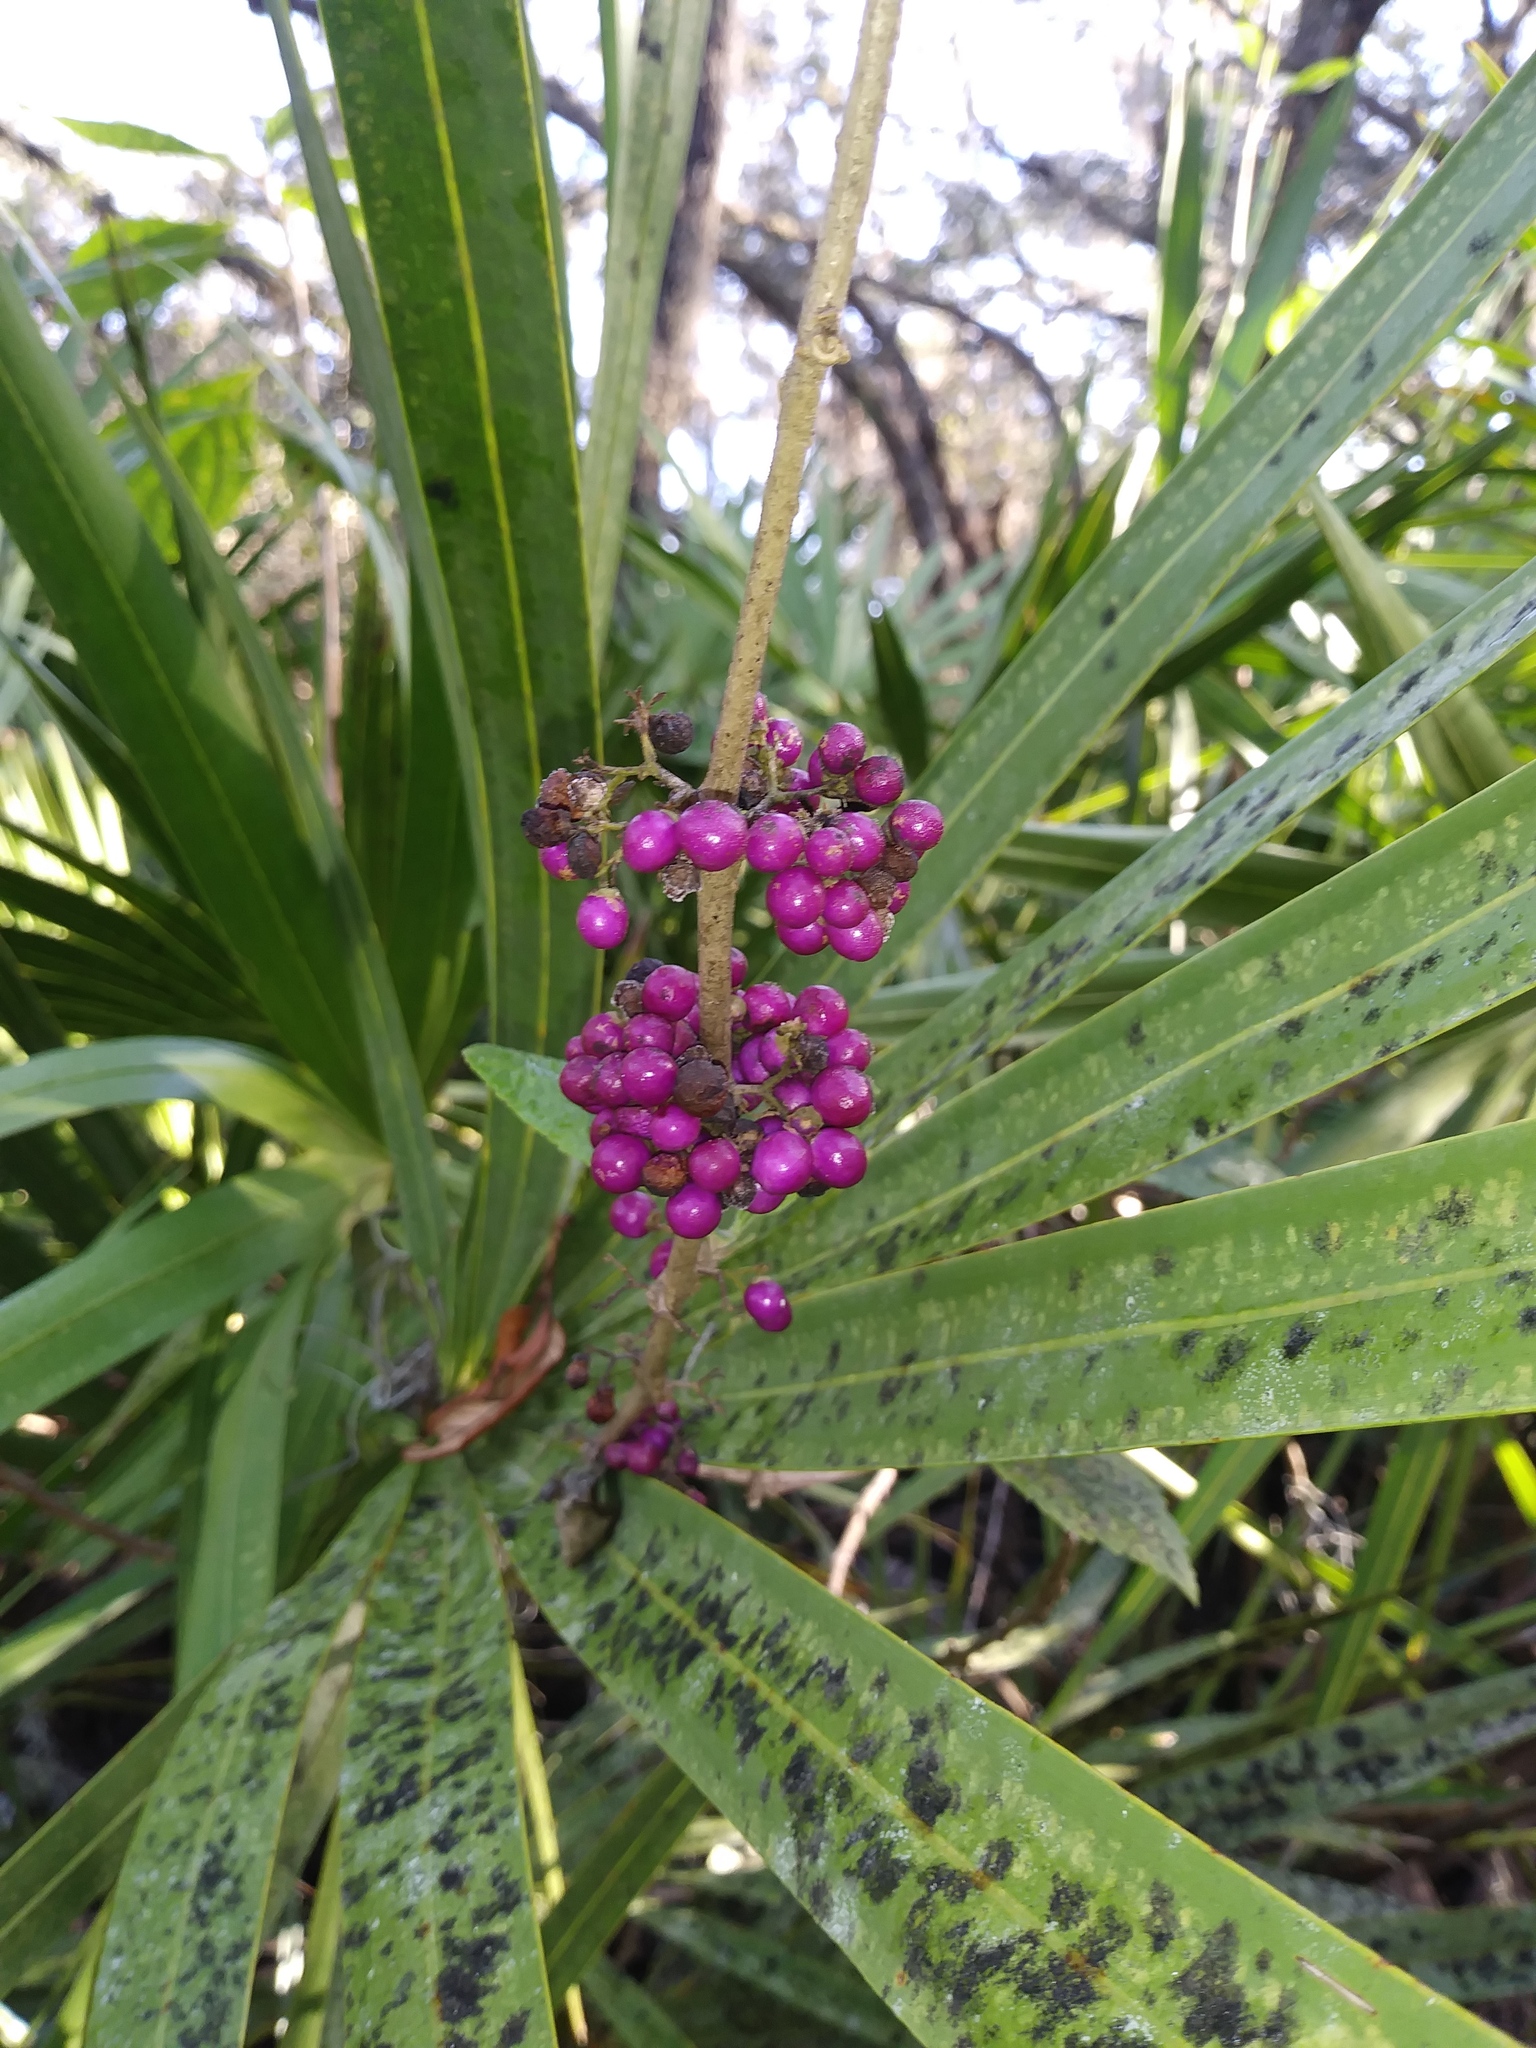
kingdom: Plantae
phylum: Tracheophyta
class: Magnoliopsida
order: Lamiales
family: Lamiaceae
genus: Callicarpa
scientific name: Callicarpa americana
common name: American beautyberry
